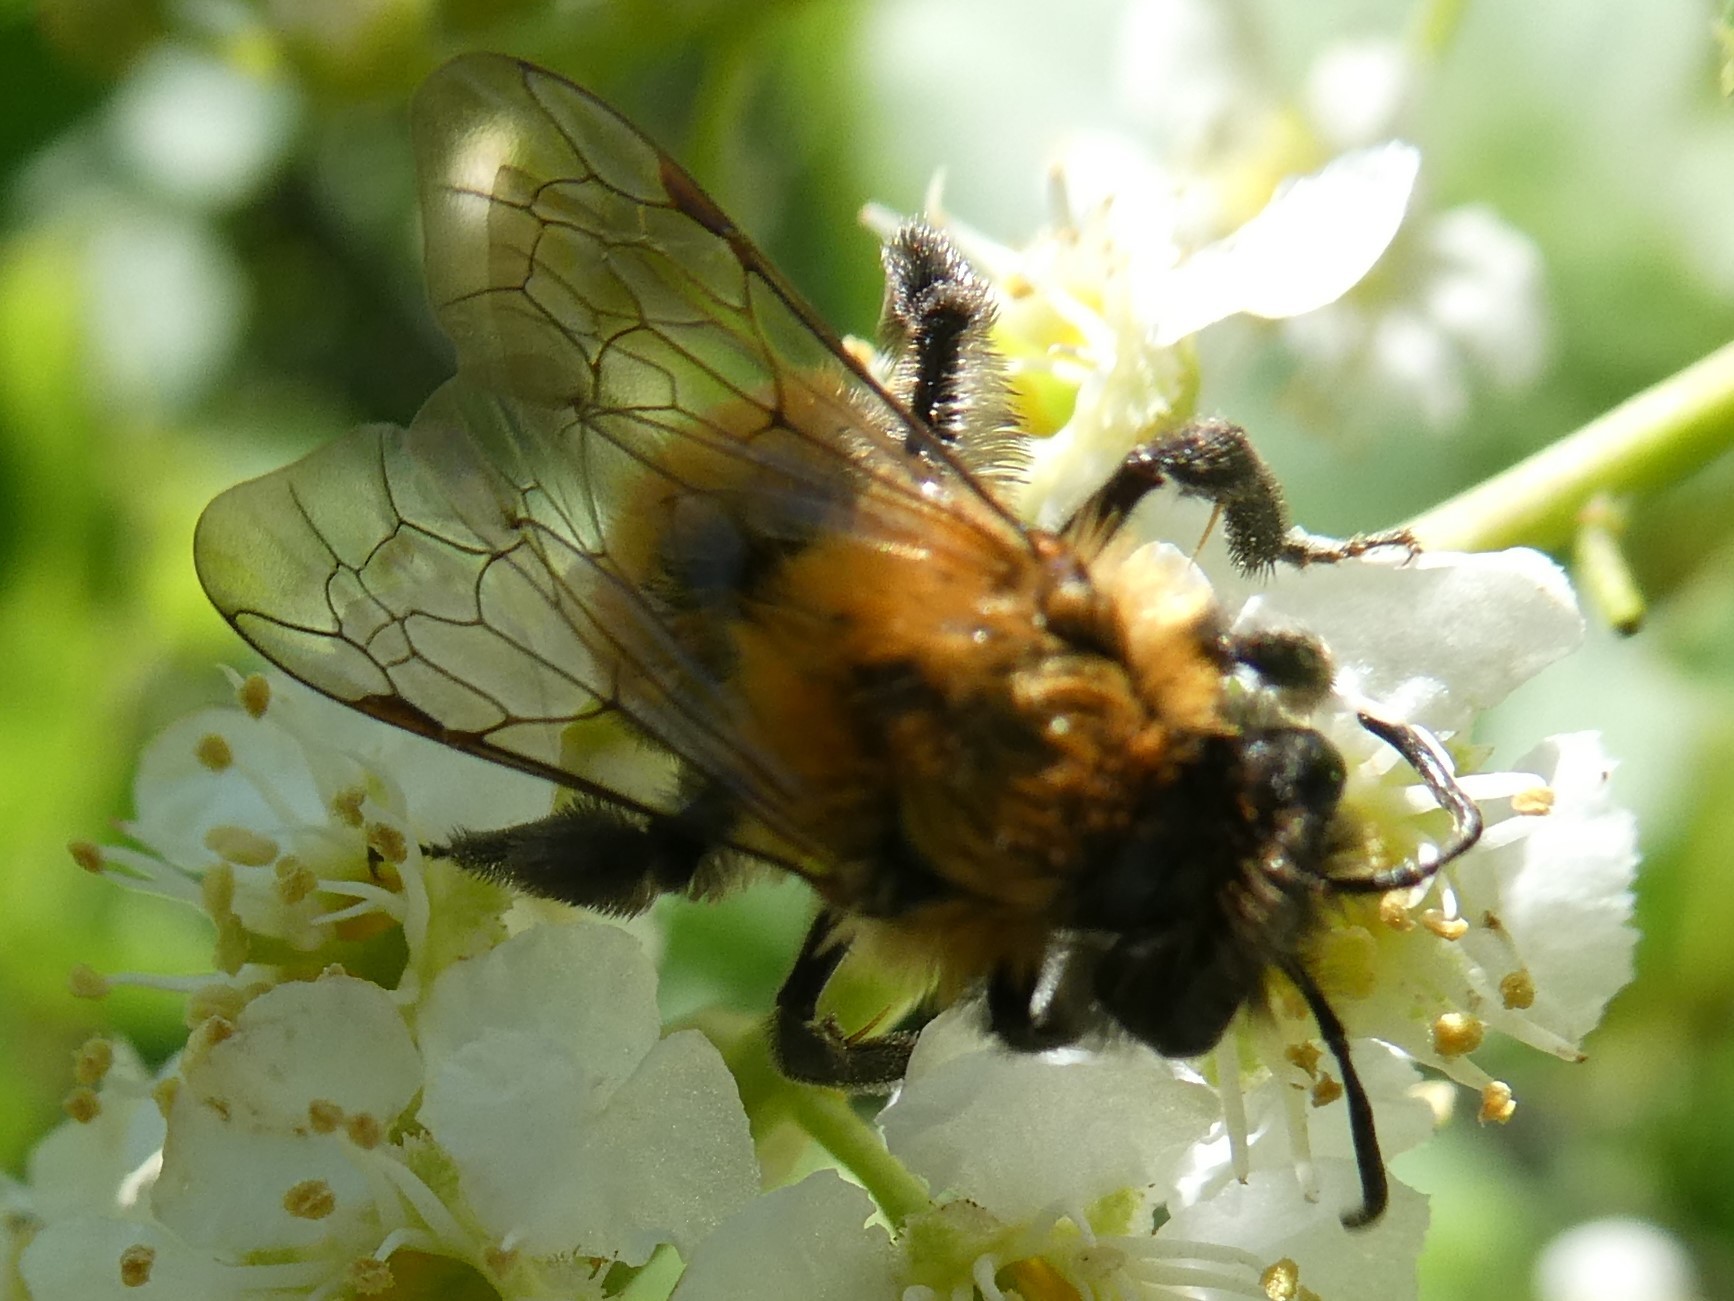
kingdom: Animalia
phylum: Arthropoda
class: Insecta
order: Hymenoptera
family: Andrenidae
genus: Andrena
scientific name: Andrena milwaukeensis
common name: Milwaukee mining bee
